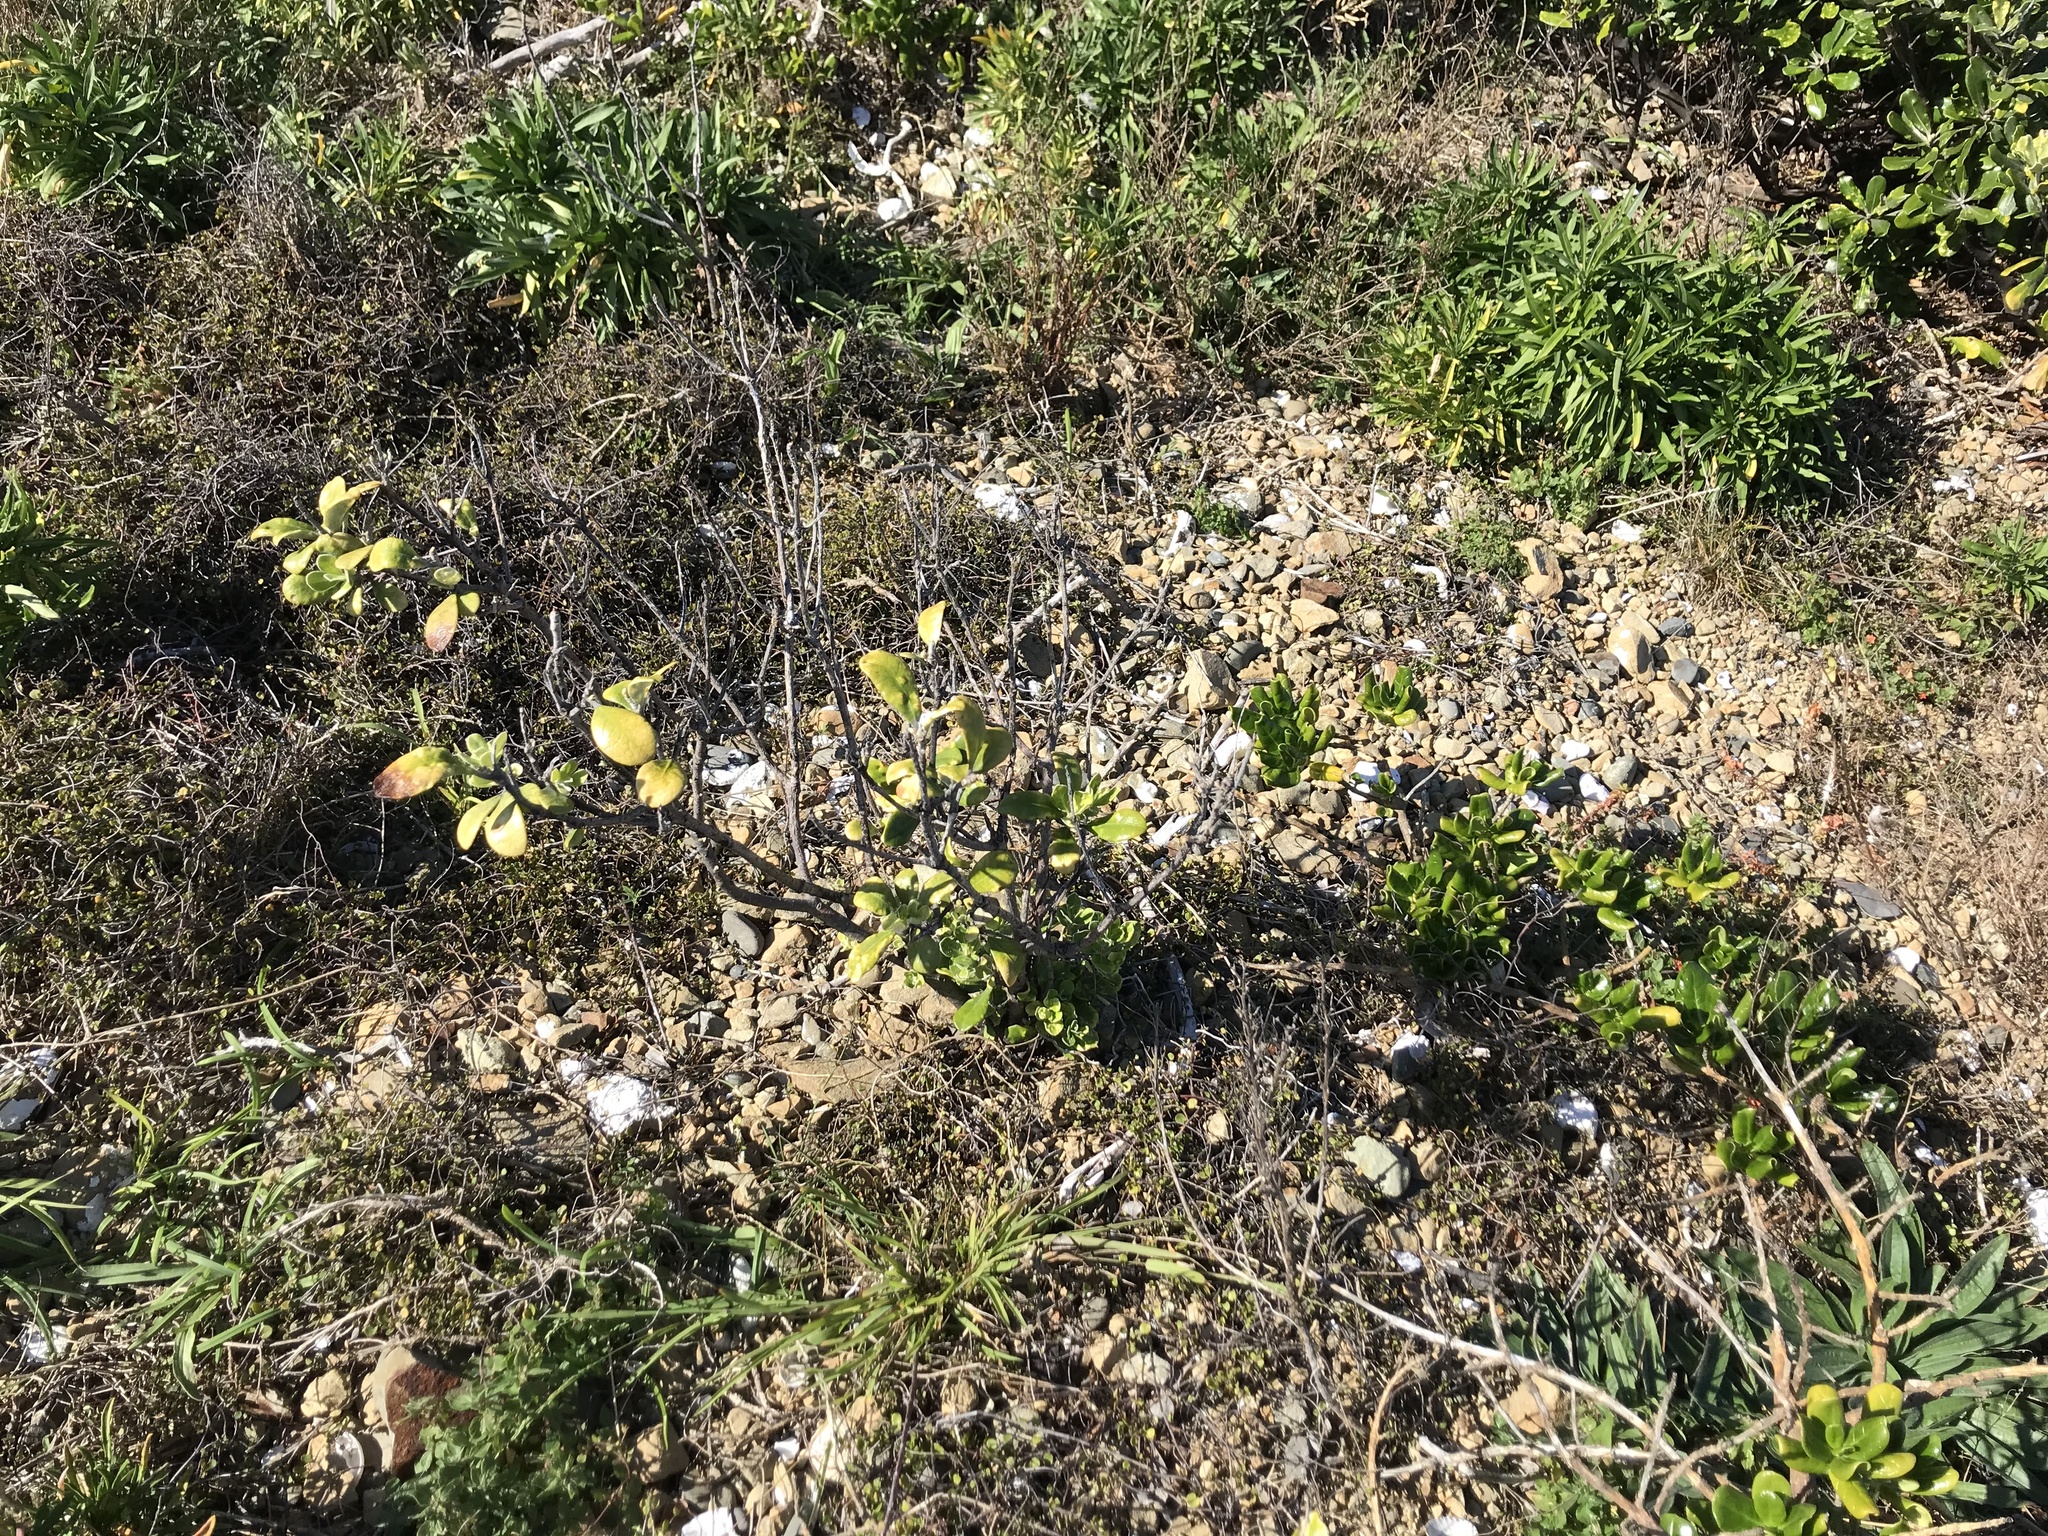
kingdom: Plantae
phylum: Tracheophyta
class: Magnoliopsida
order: Apiales
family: Pittosporaceae
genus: Pittosporum
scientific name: Pittosporum crassifolium
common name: Karo
